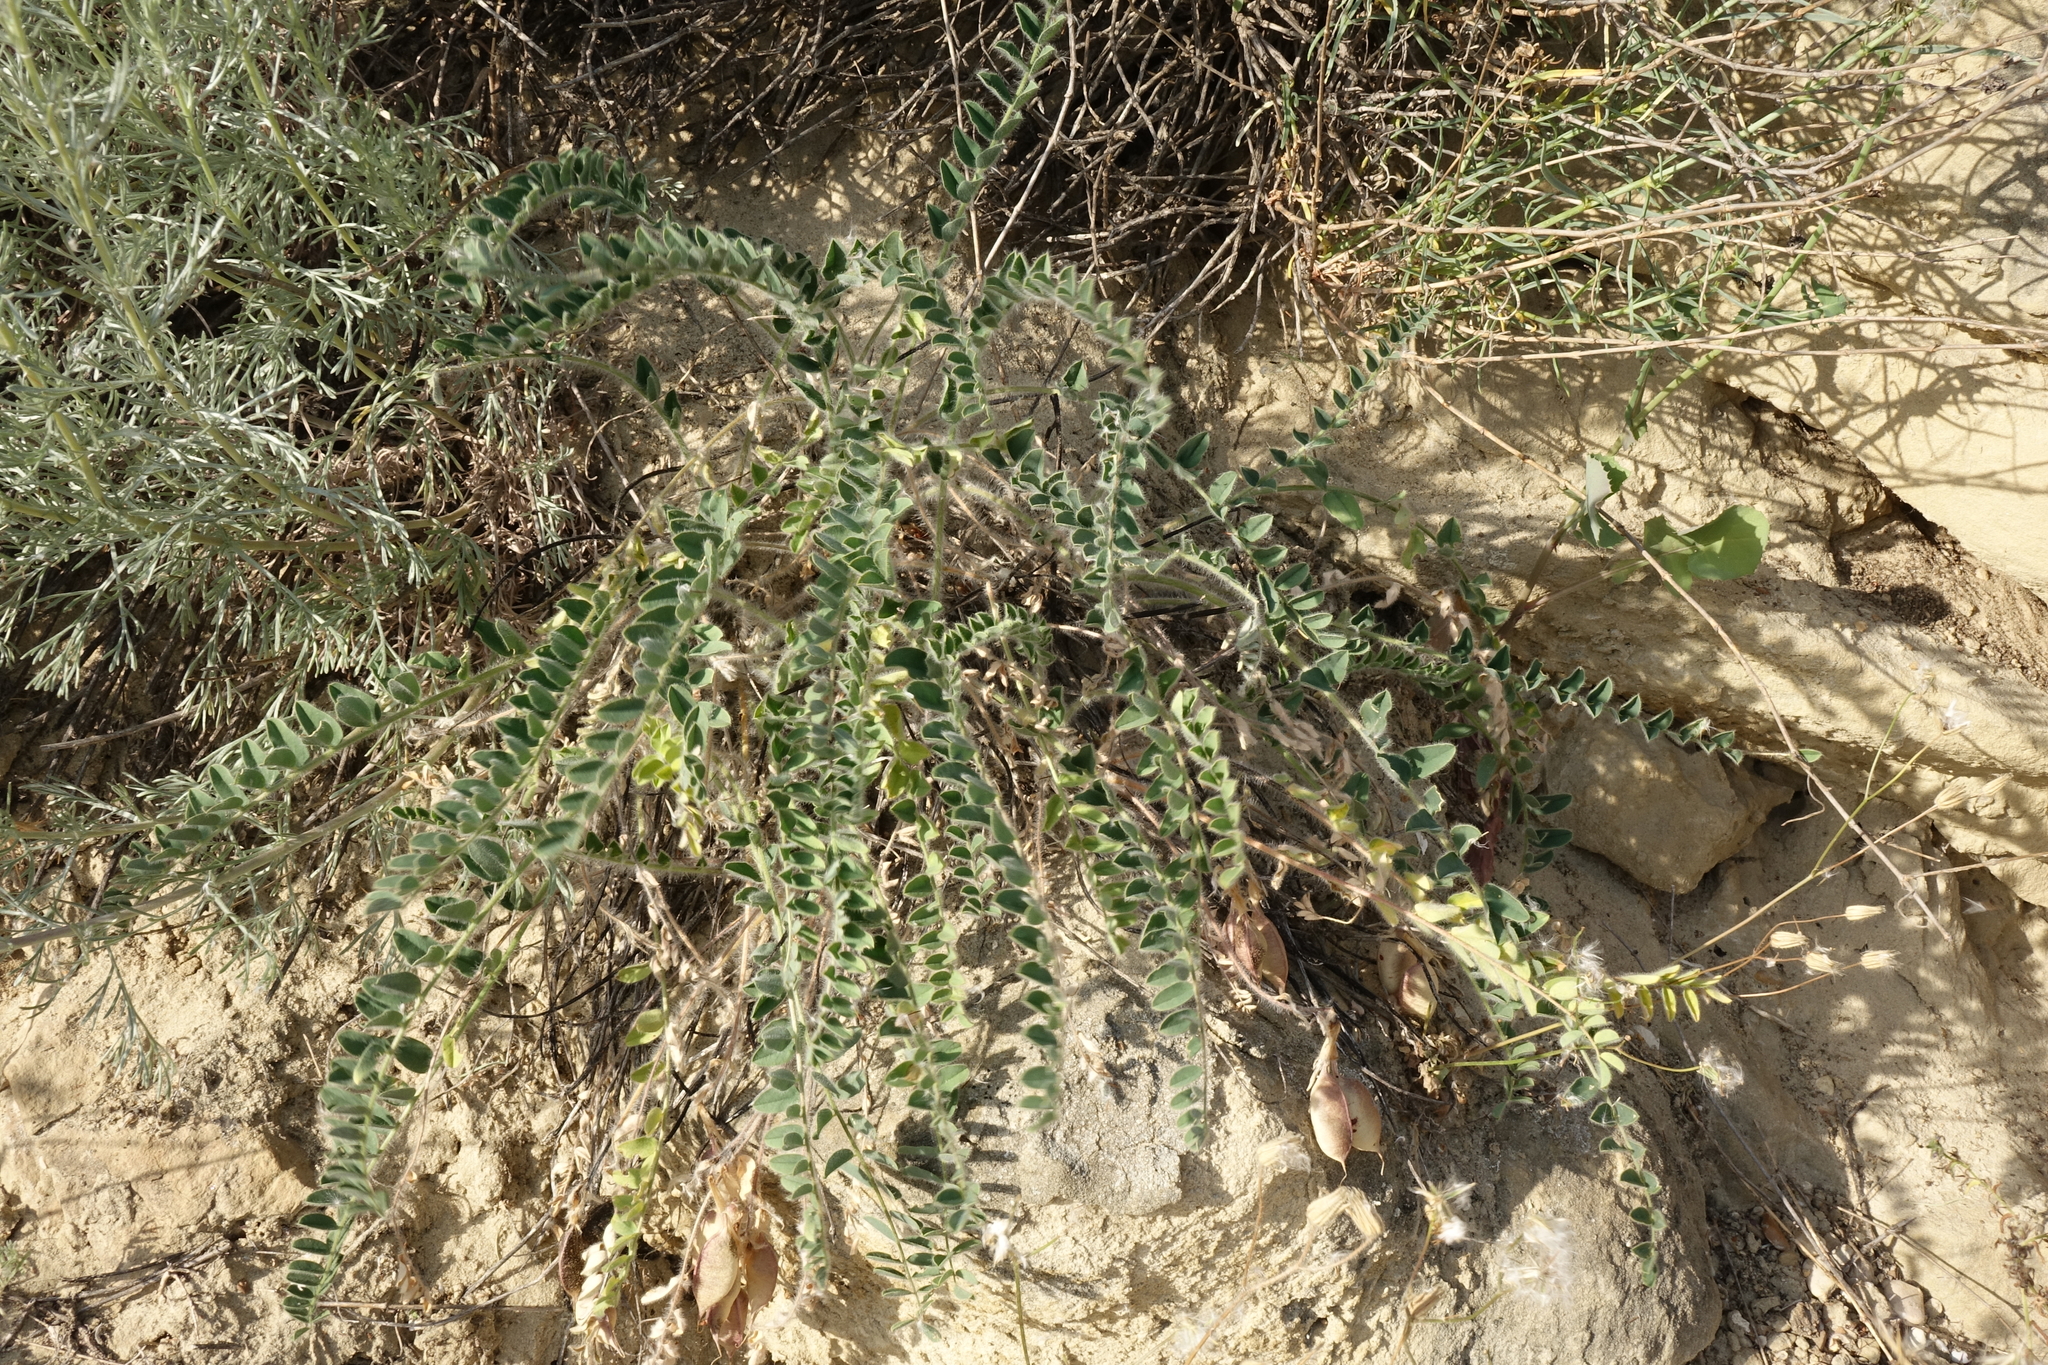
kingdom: Plantae
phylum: Tracheophyta
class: Magnoliopsida
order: Fabales
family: Fabaceae
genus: Astragalus
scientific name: Astragalus longipetalus
